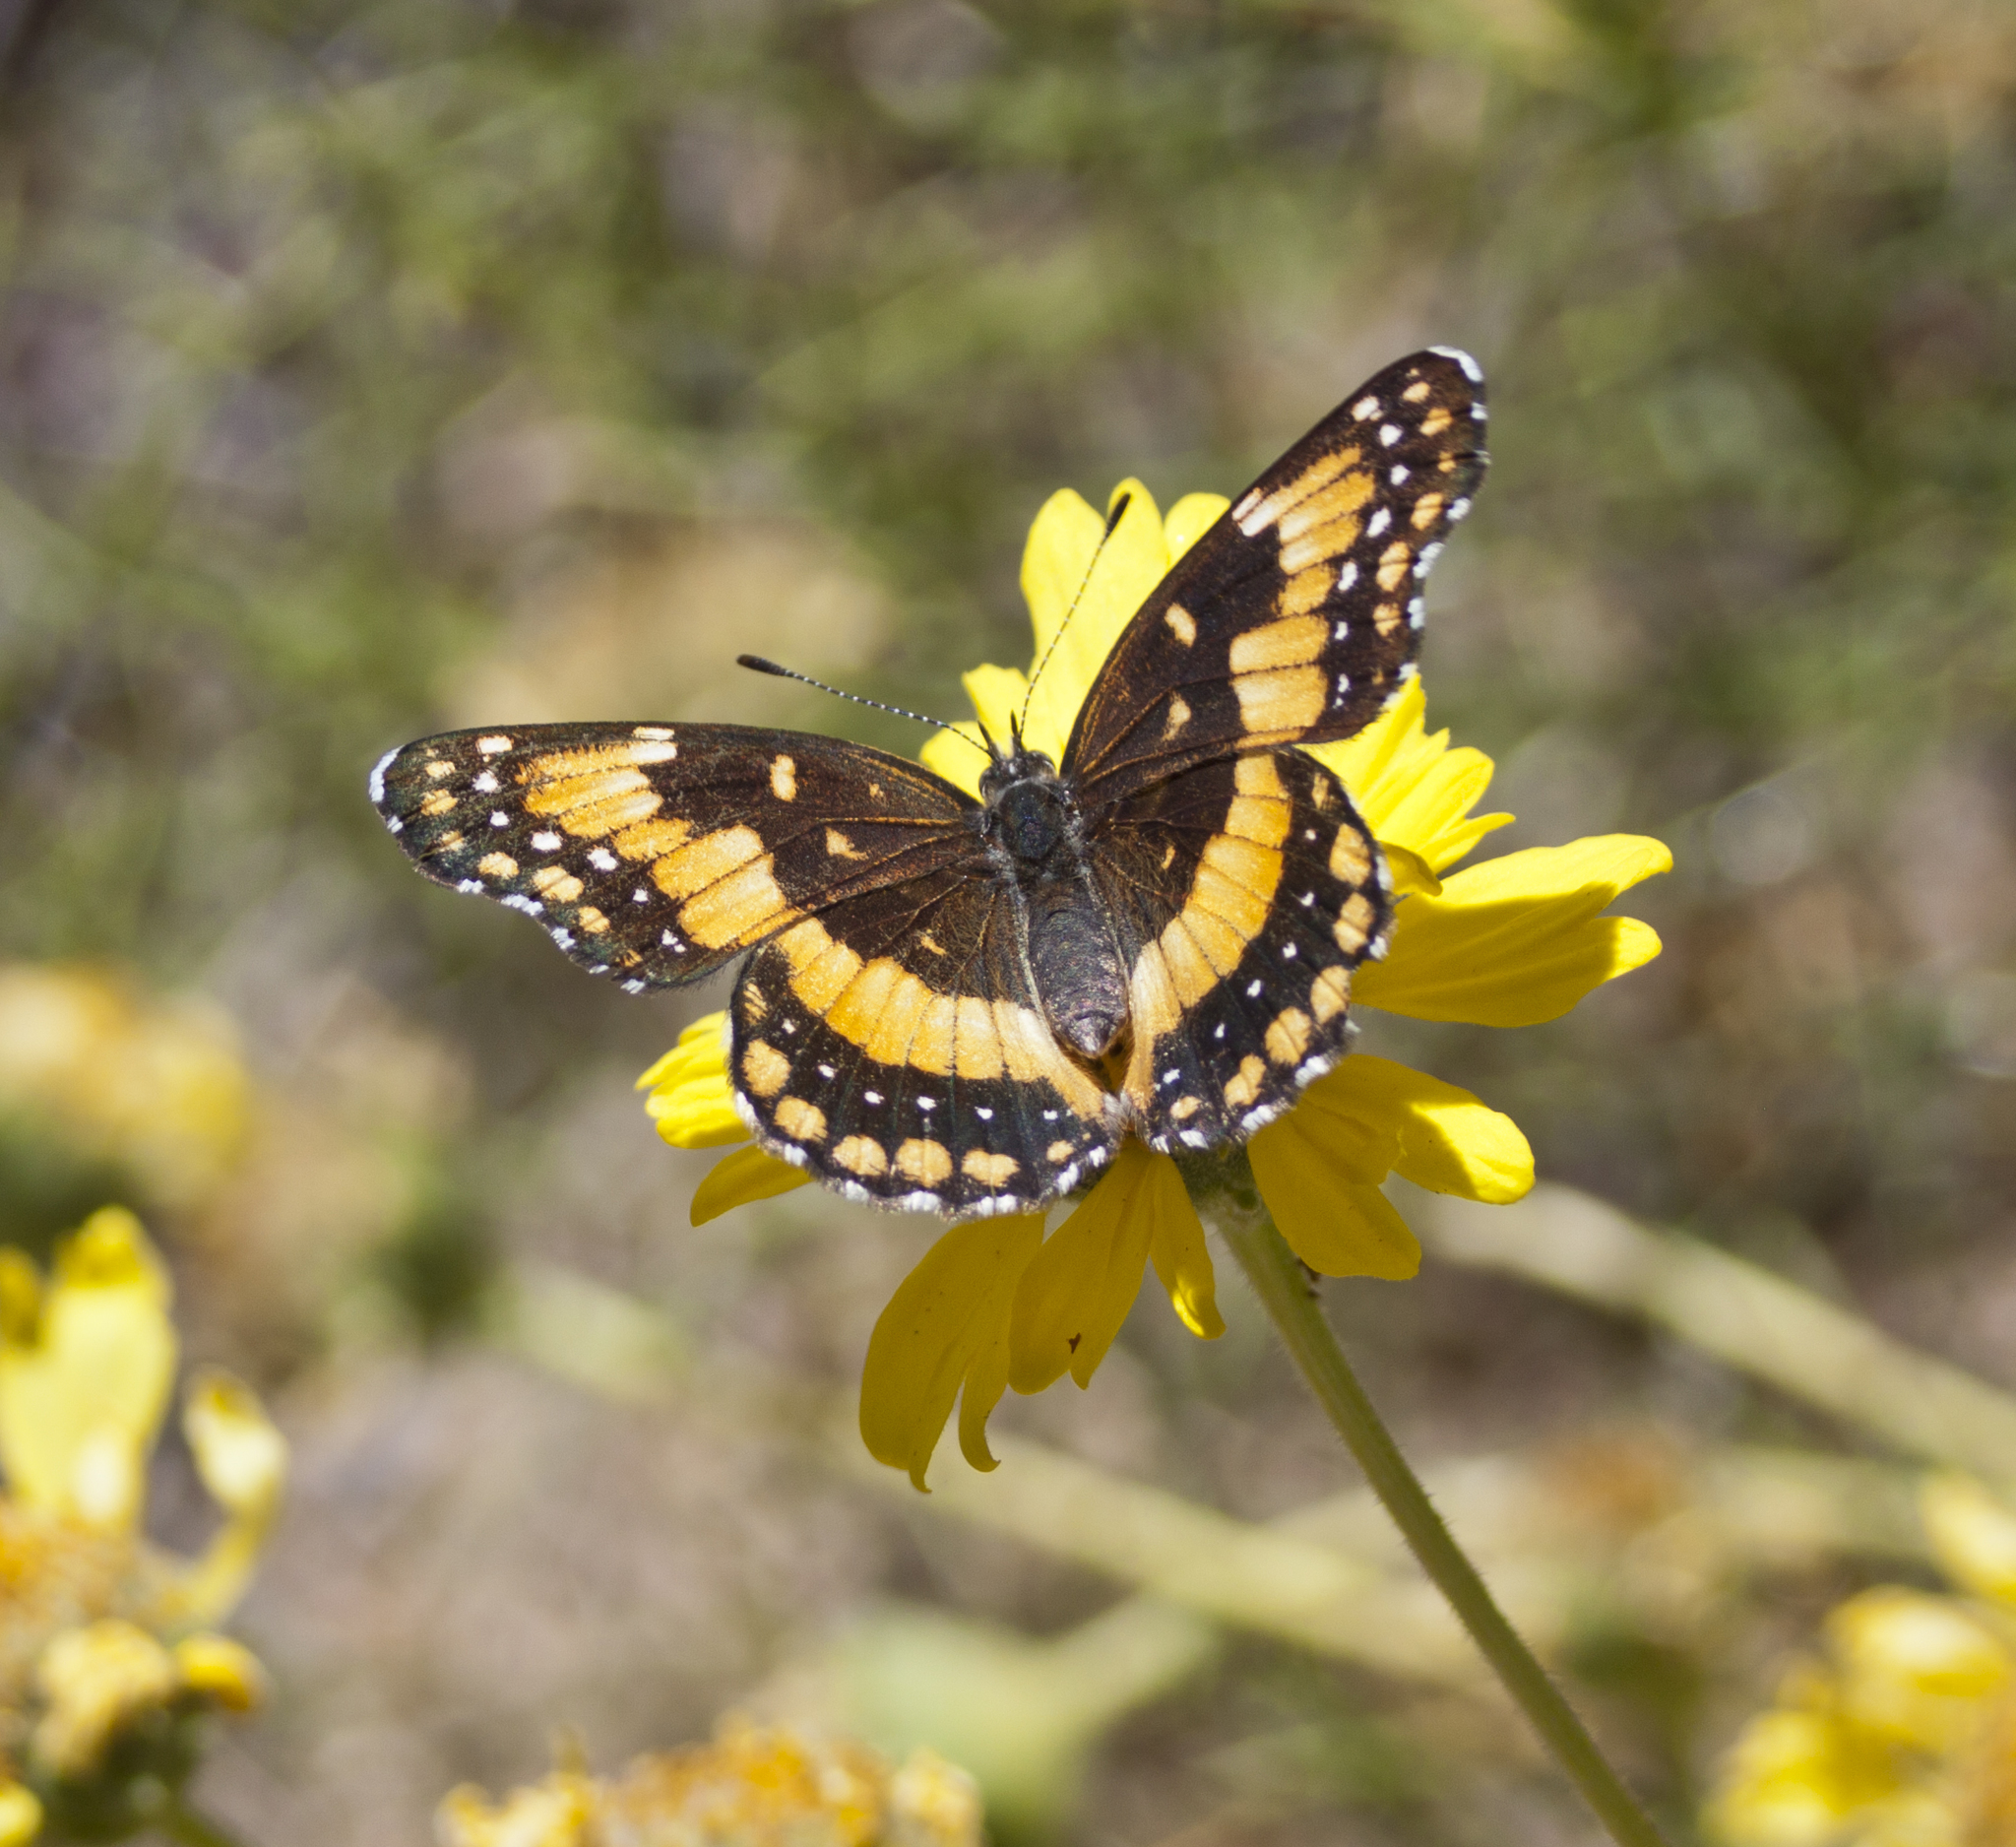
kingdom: Animalia
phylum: Arthropoda
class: Insecta
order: Lepidoptera
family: Nymphalidae
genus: Chlosyne
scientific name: Chlosyne californica
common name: California patch
